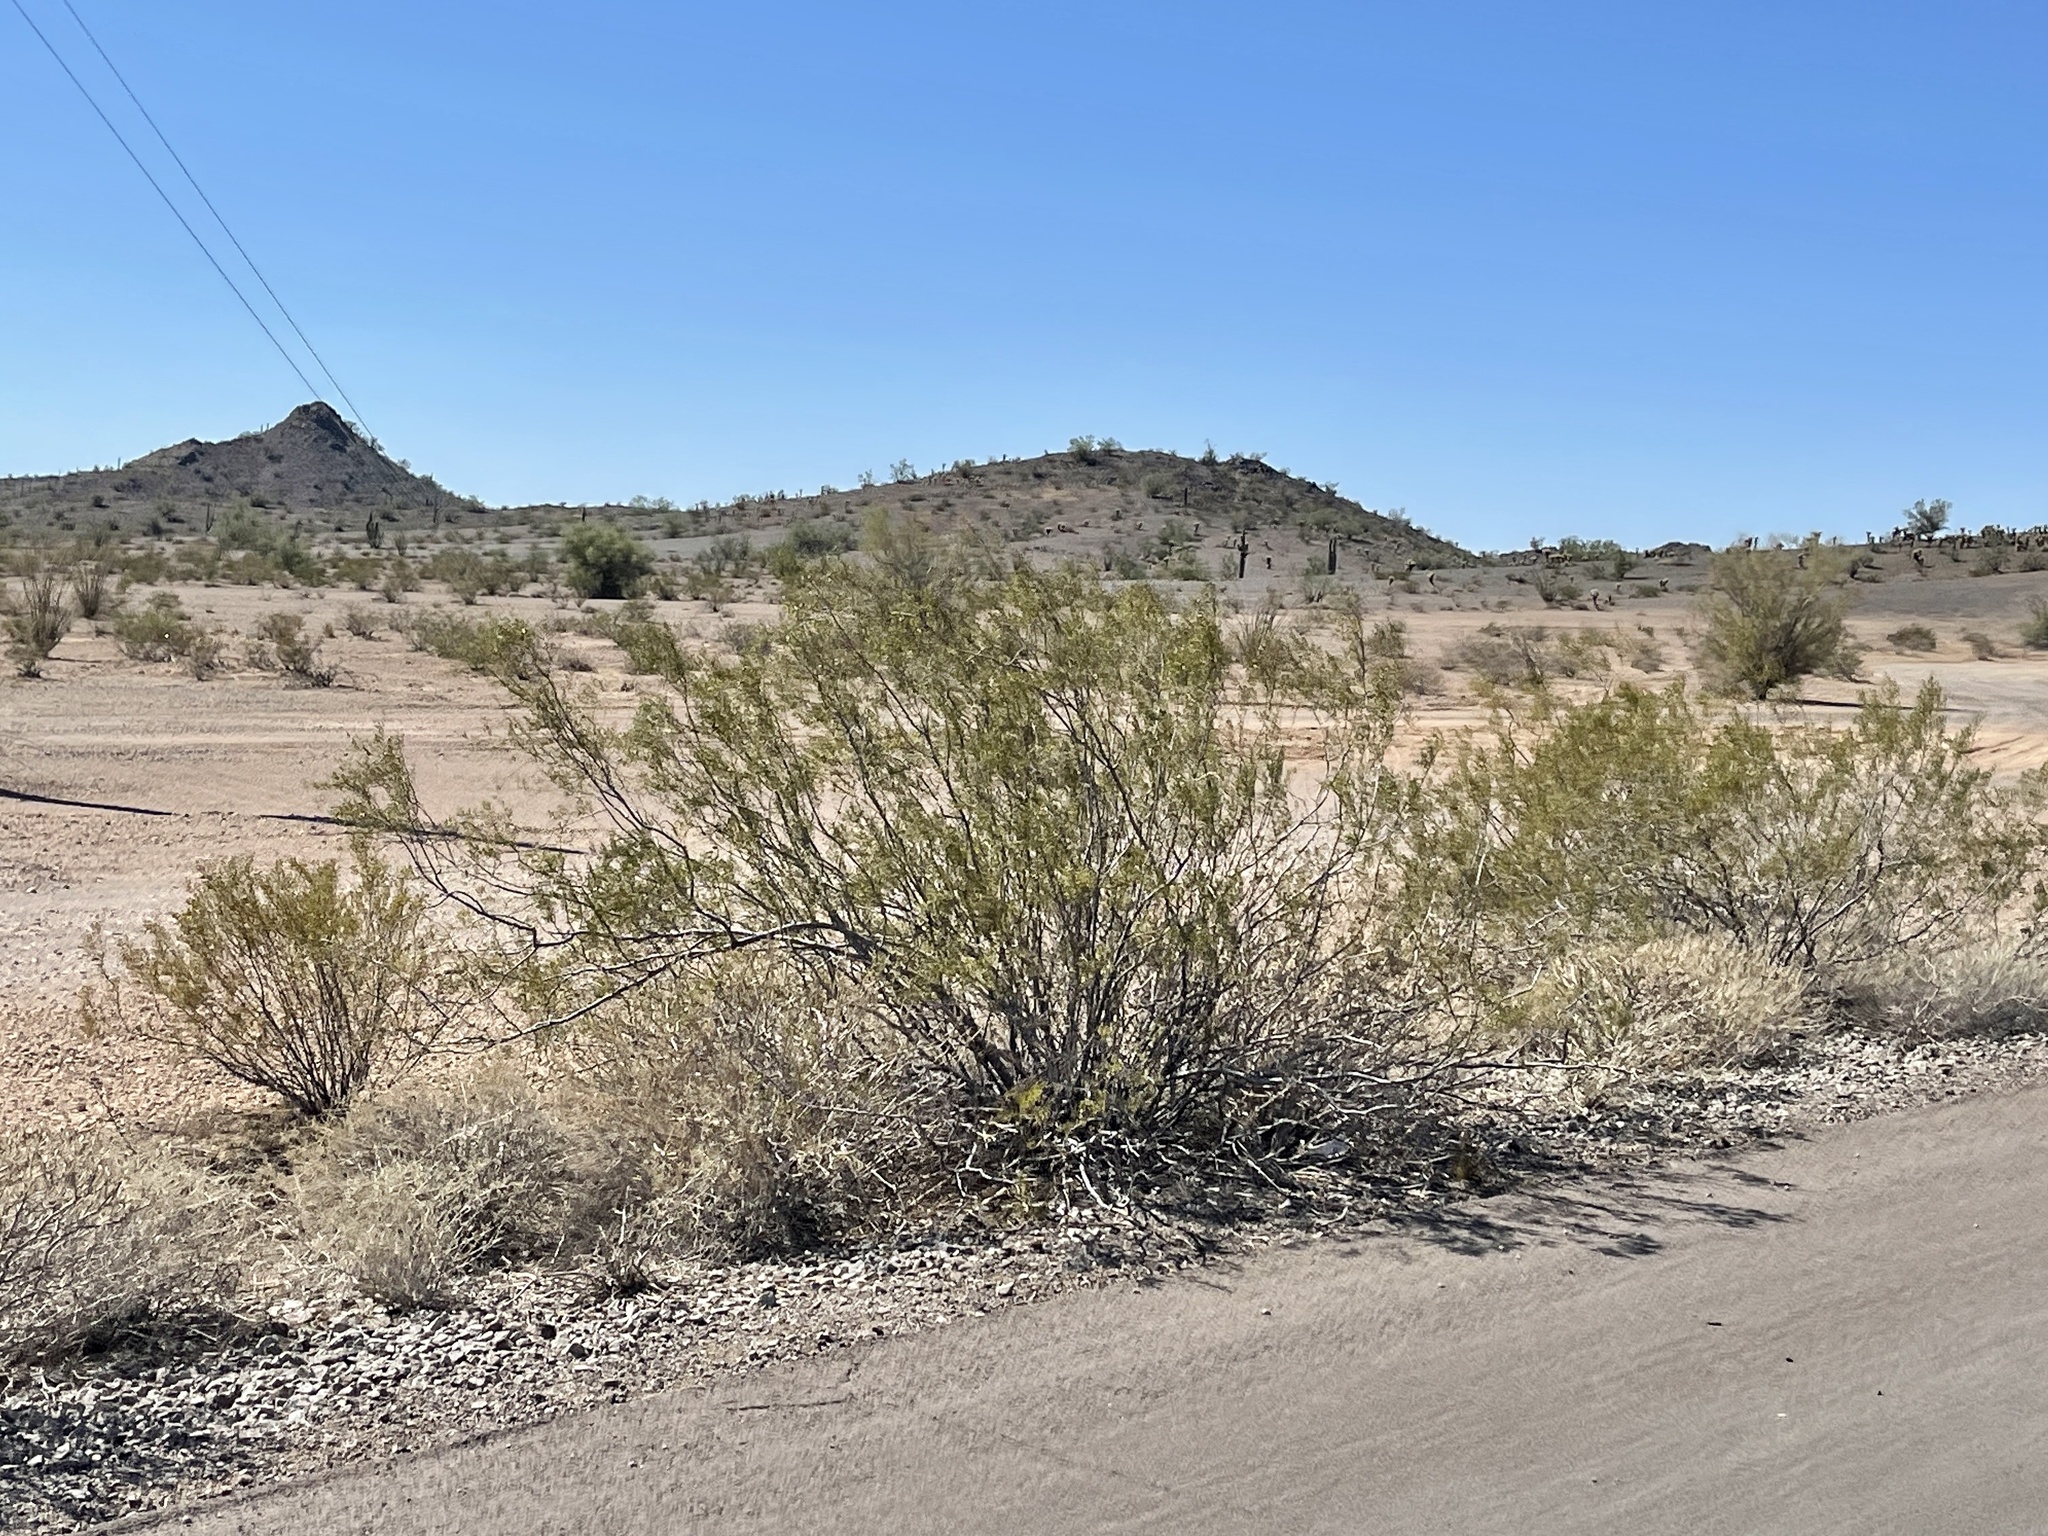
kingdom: Plantae
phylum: Tracheophyta
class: Magnoliopsida
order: Zygophyllales
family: Zygophyllaceae
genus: Larrea
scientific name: Larrea tridentata
